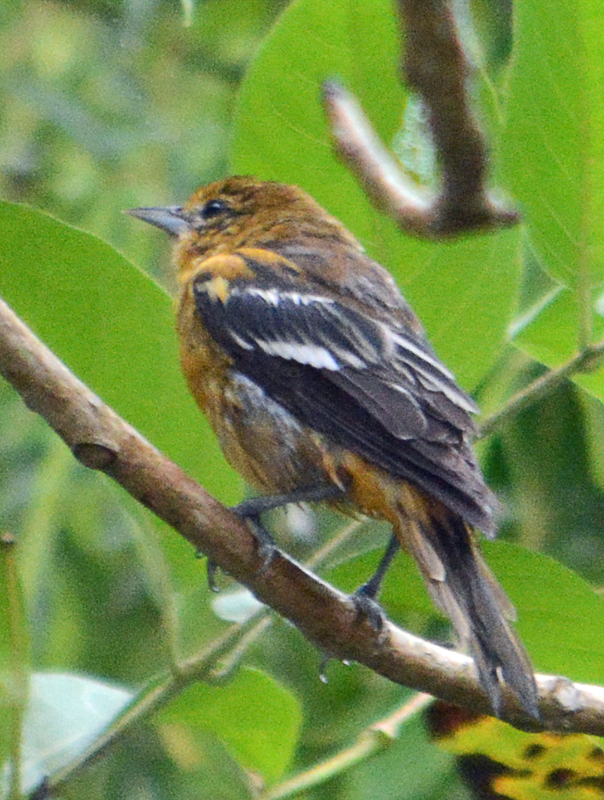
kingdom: Animalia
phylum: Chordata
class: Aves
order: Passeriformes
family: Icteridae
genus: Icterus
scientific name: Icterus galbula
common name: Baltimore oriole
